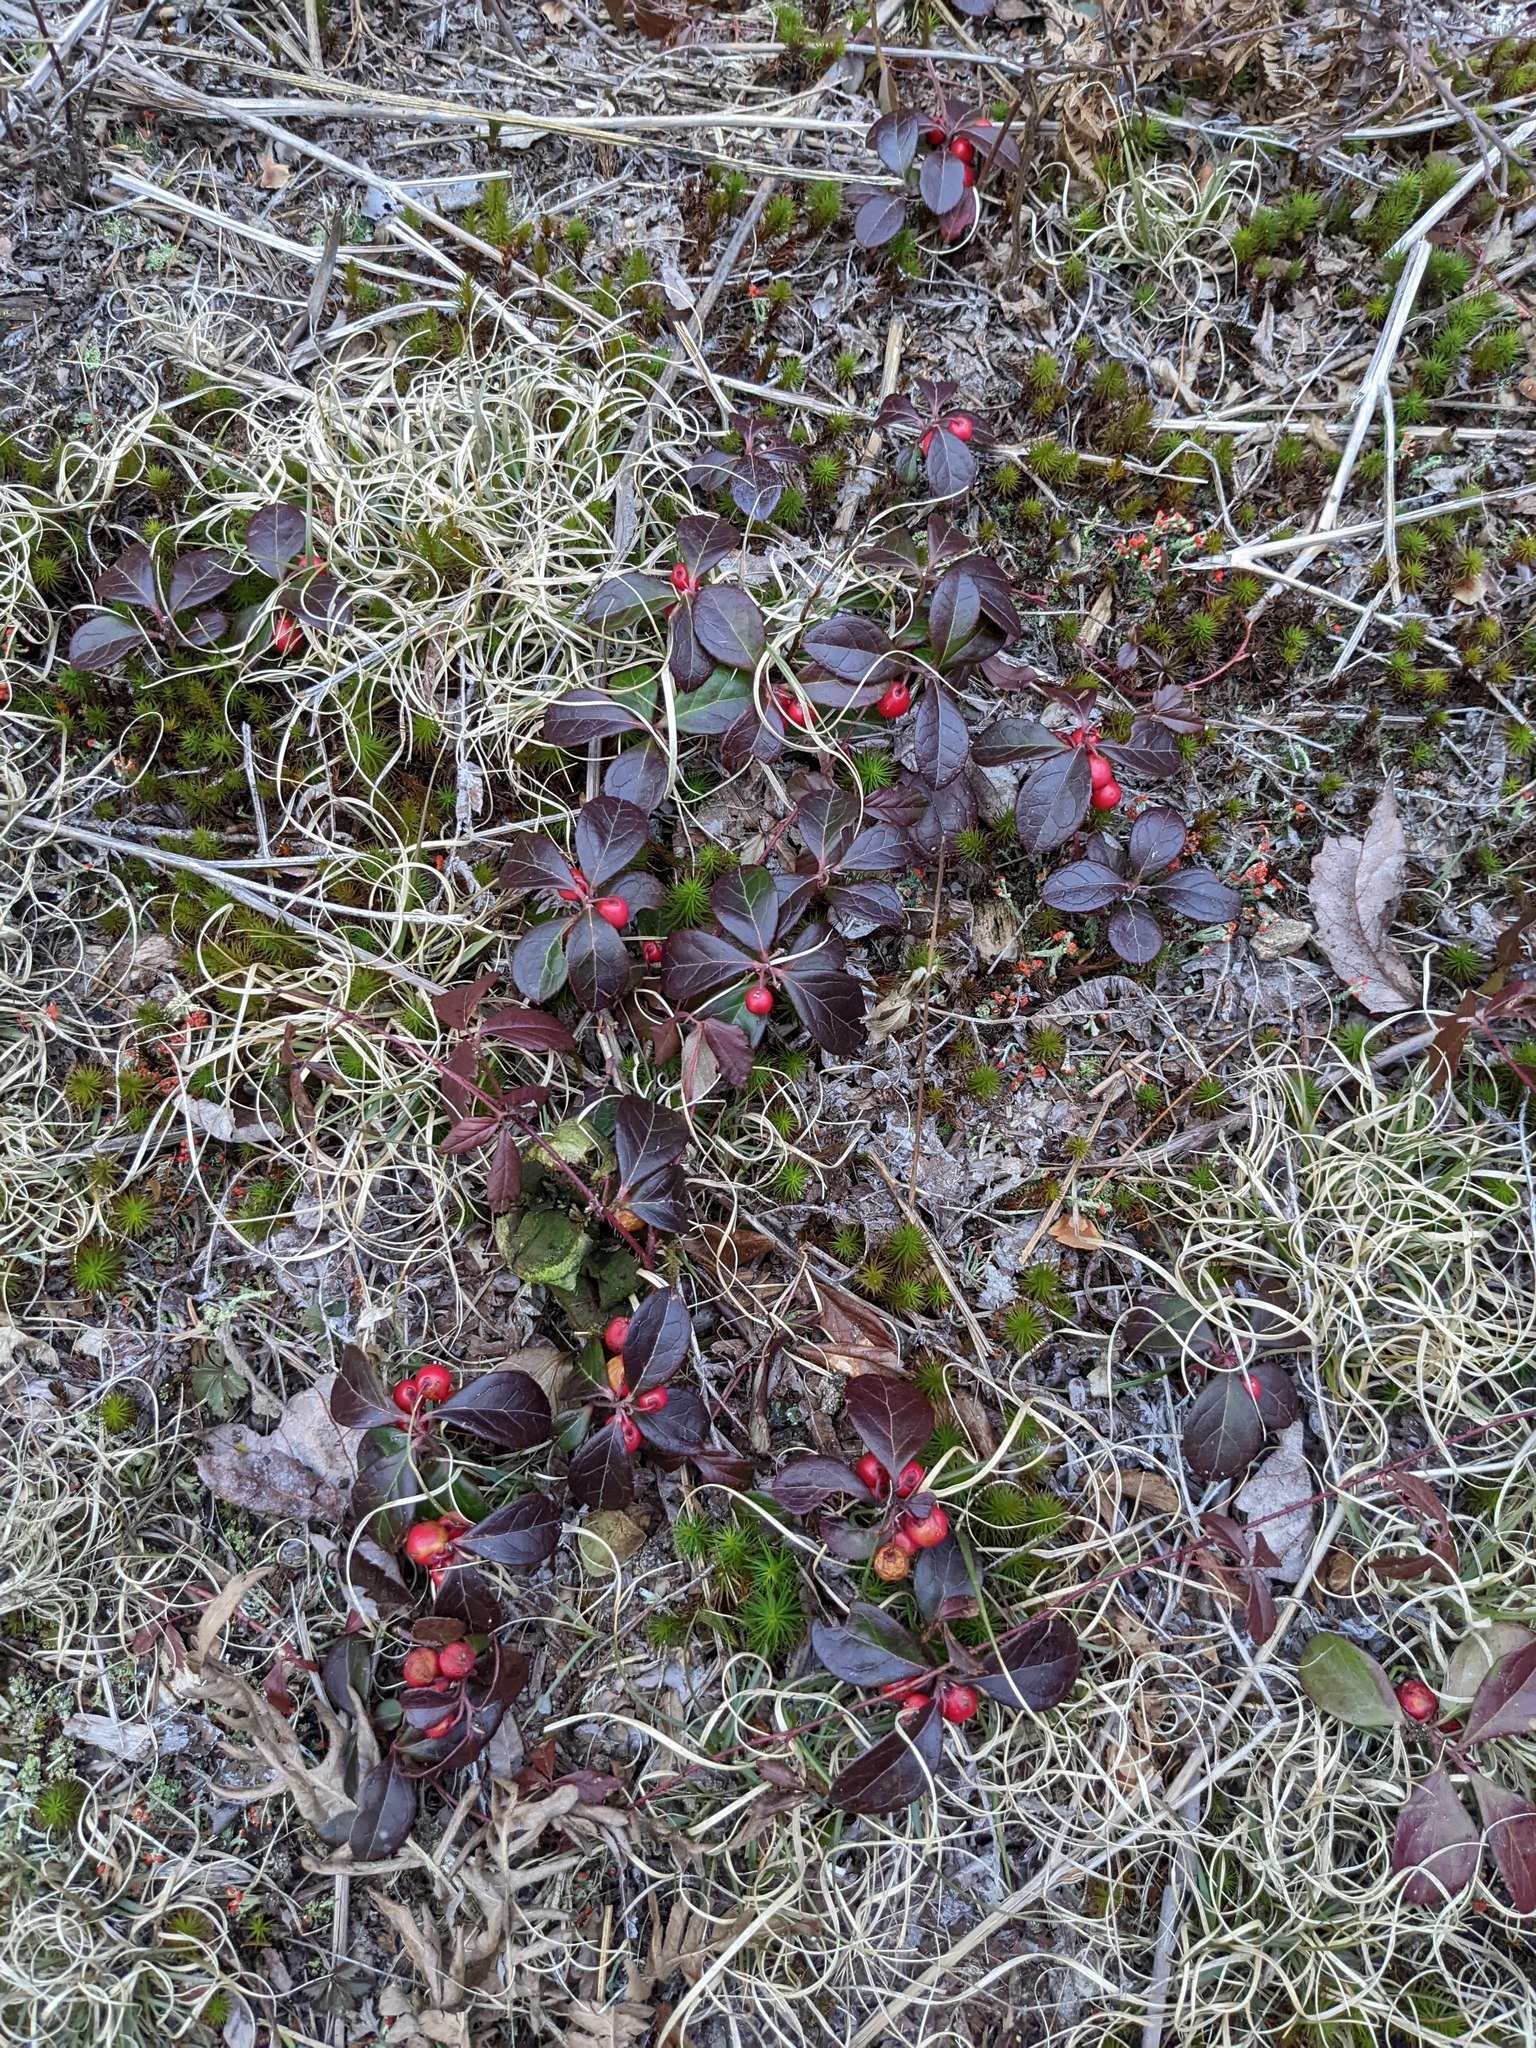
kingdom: Plantae
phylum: Tracheophyta
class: Magnoliopsida
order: Ericales
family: Ericaceae
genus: Gaultheria
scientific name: Gaultheria procumbens
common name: Checkerberry
